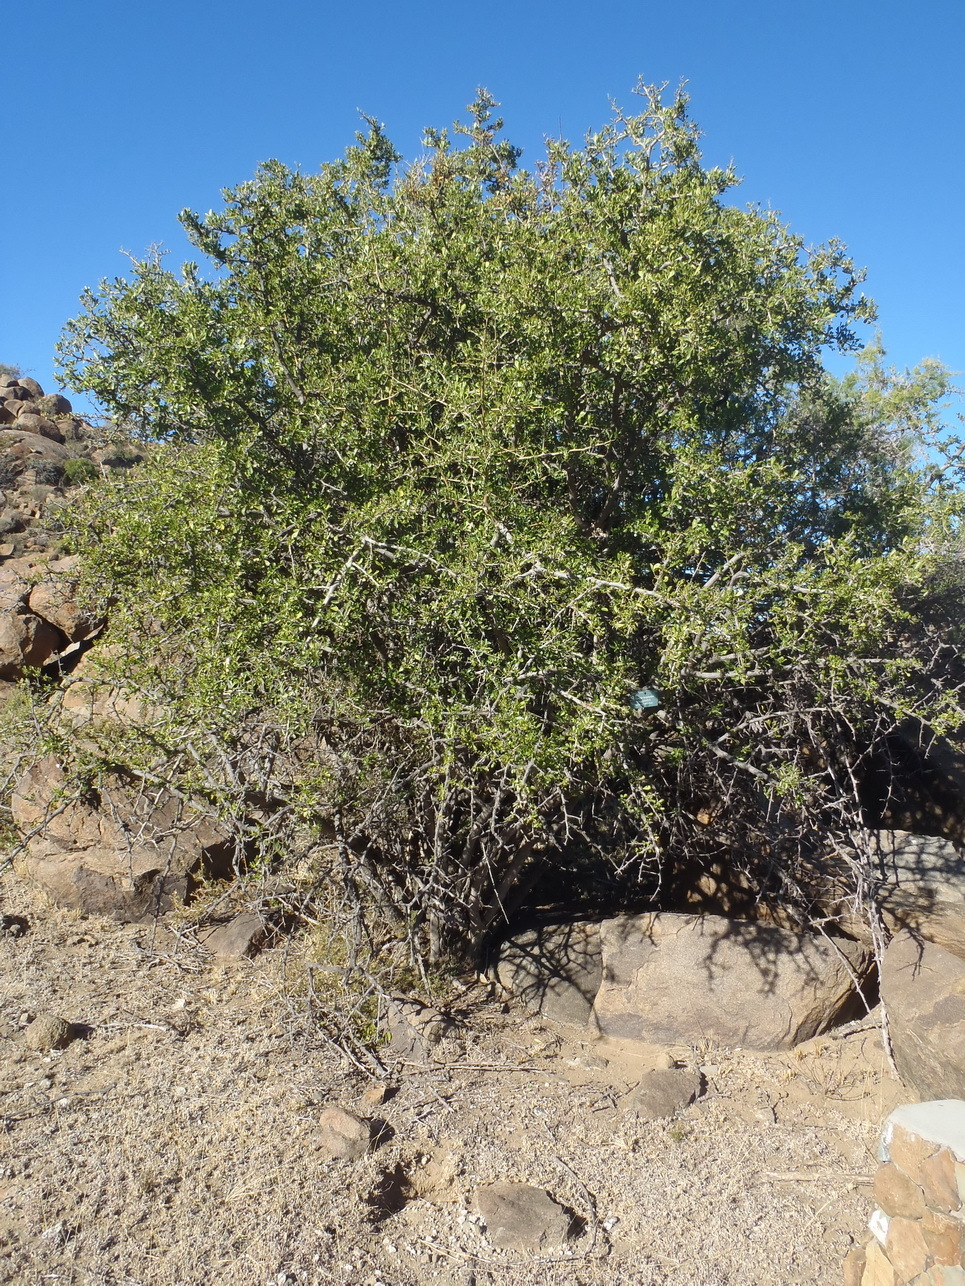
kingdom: Plantae
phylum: Tracheophyta
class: Magnoliopsida
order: Sapindales
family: Anacardiaceae
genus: Searsia
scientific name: Searsia longispina
